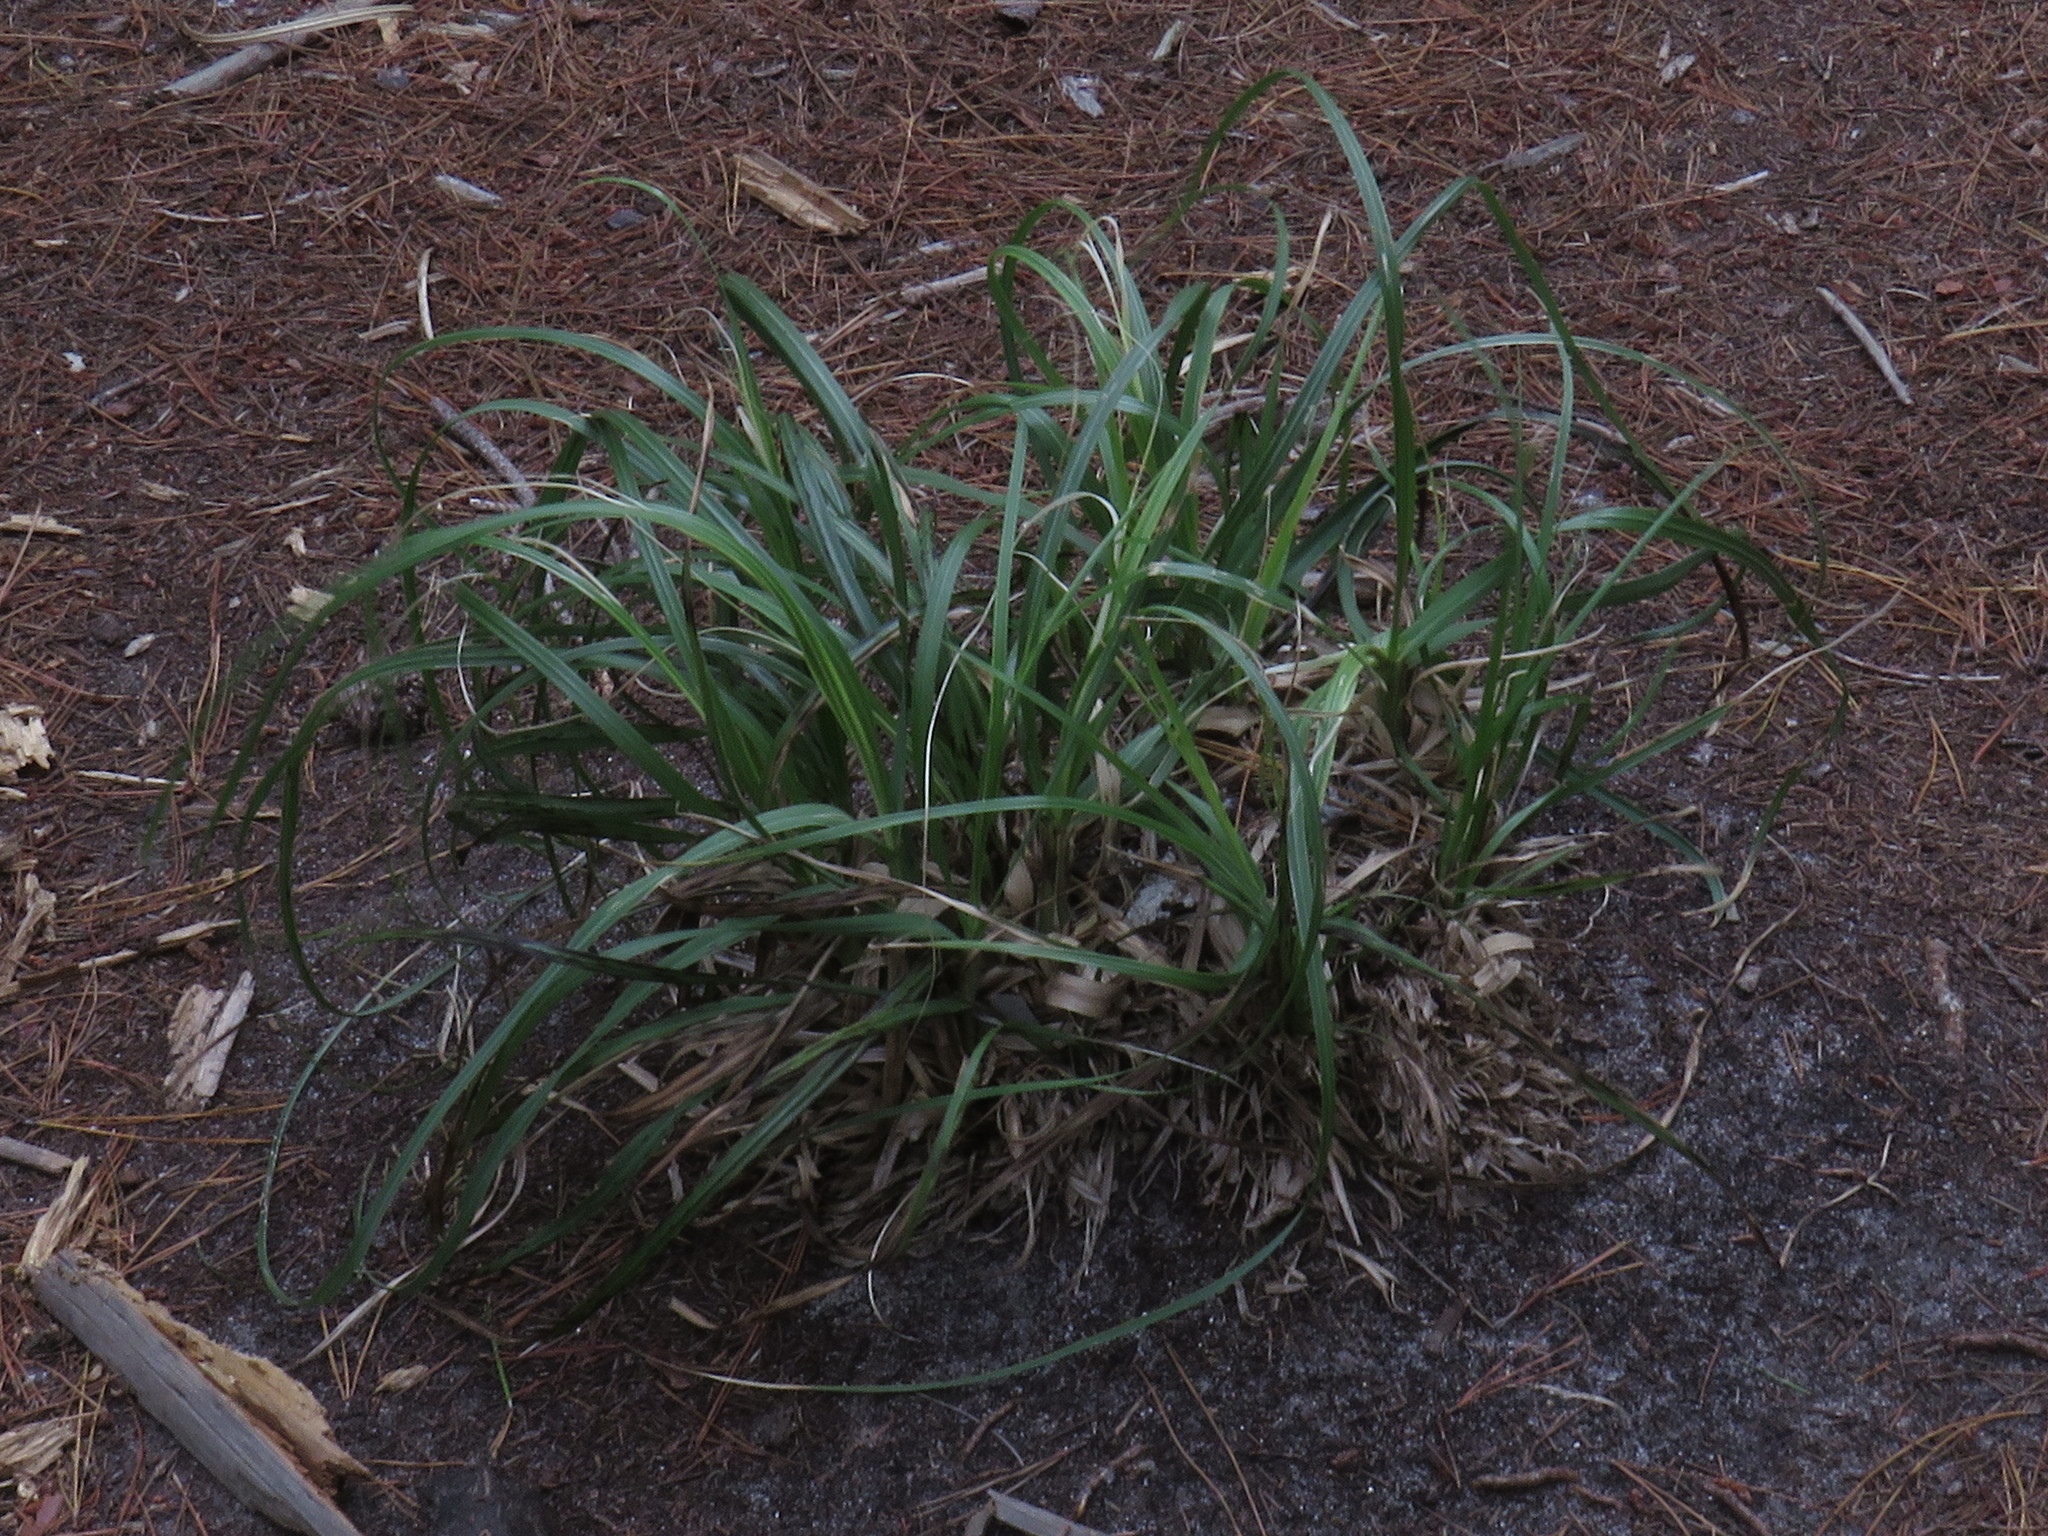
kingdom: Plantae
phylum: Tracheophyta
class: Liliopsida
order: Poales
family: Poaceae
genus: Cortaderia
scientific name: Cortaderia selloana
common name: Uruguayan pampas grass
